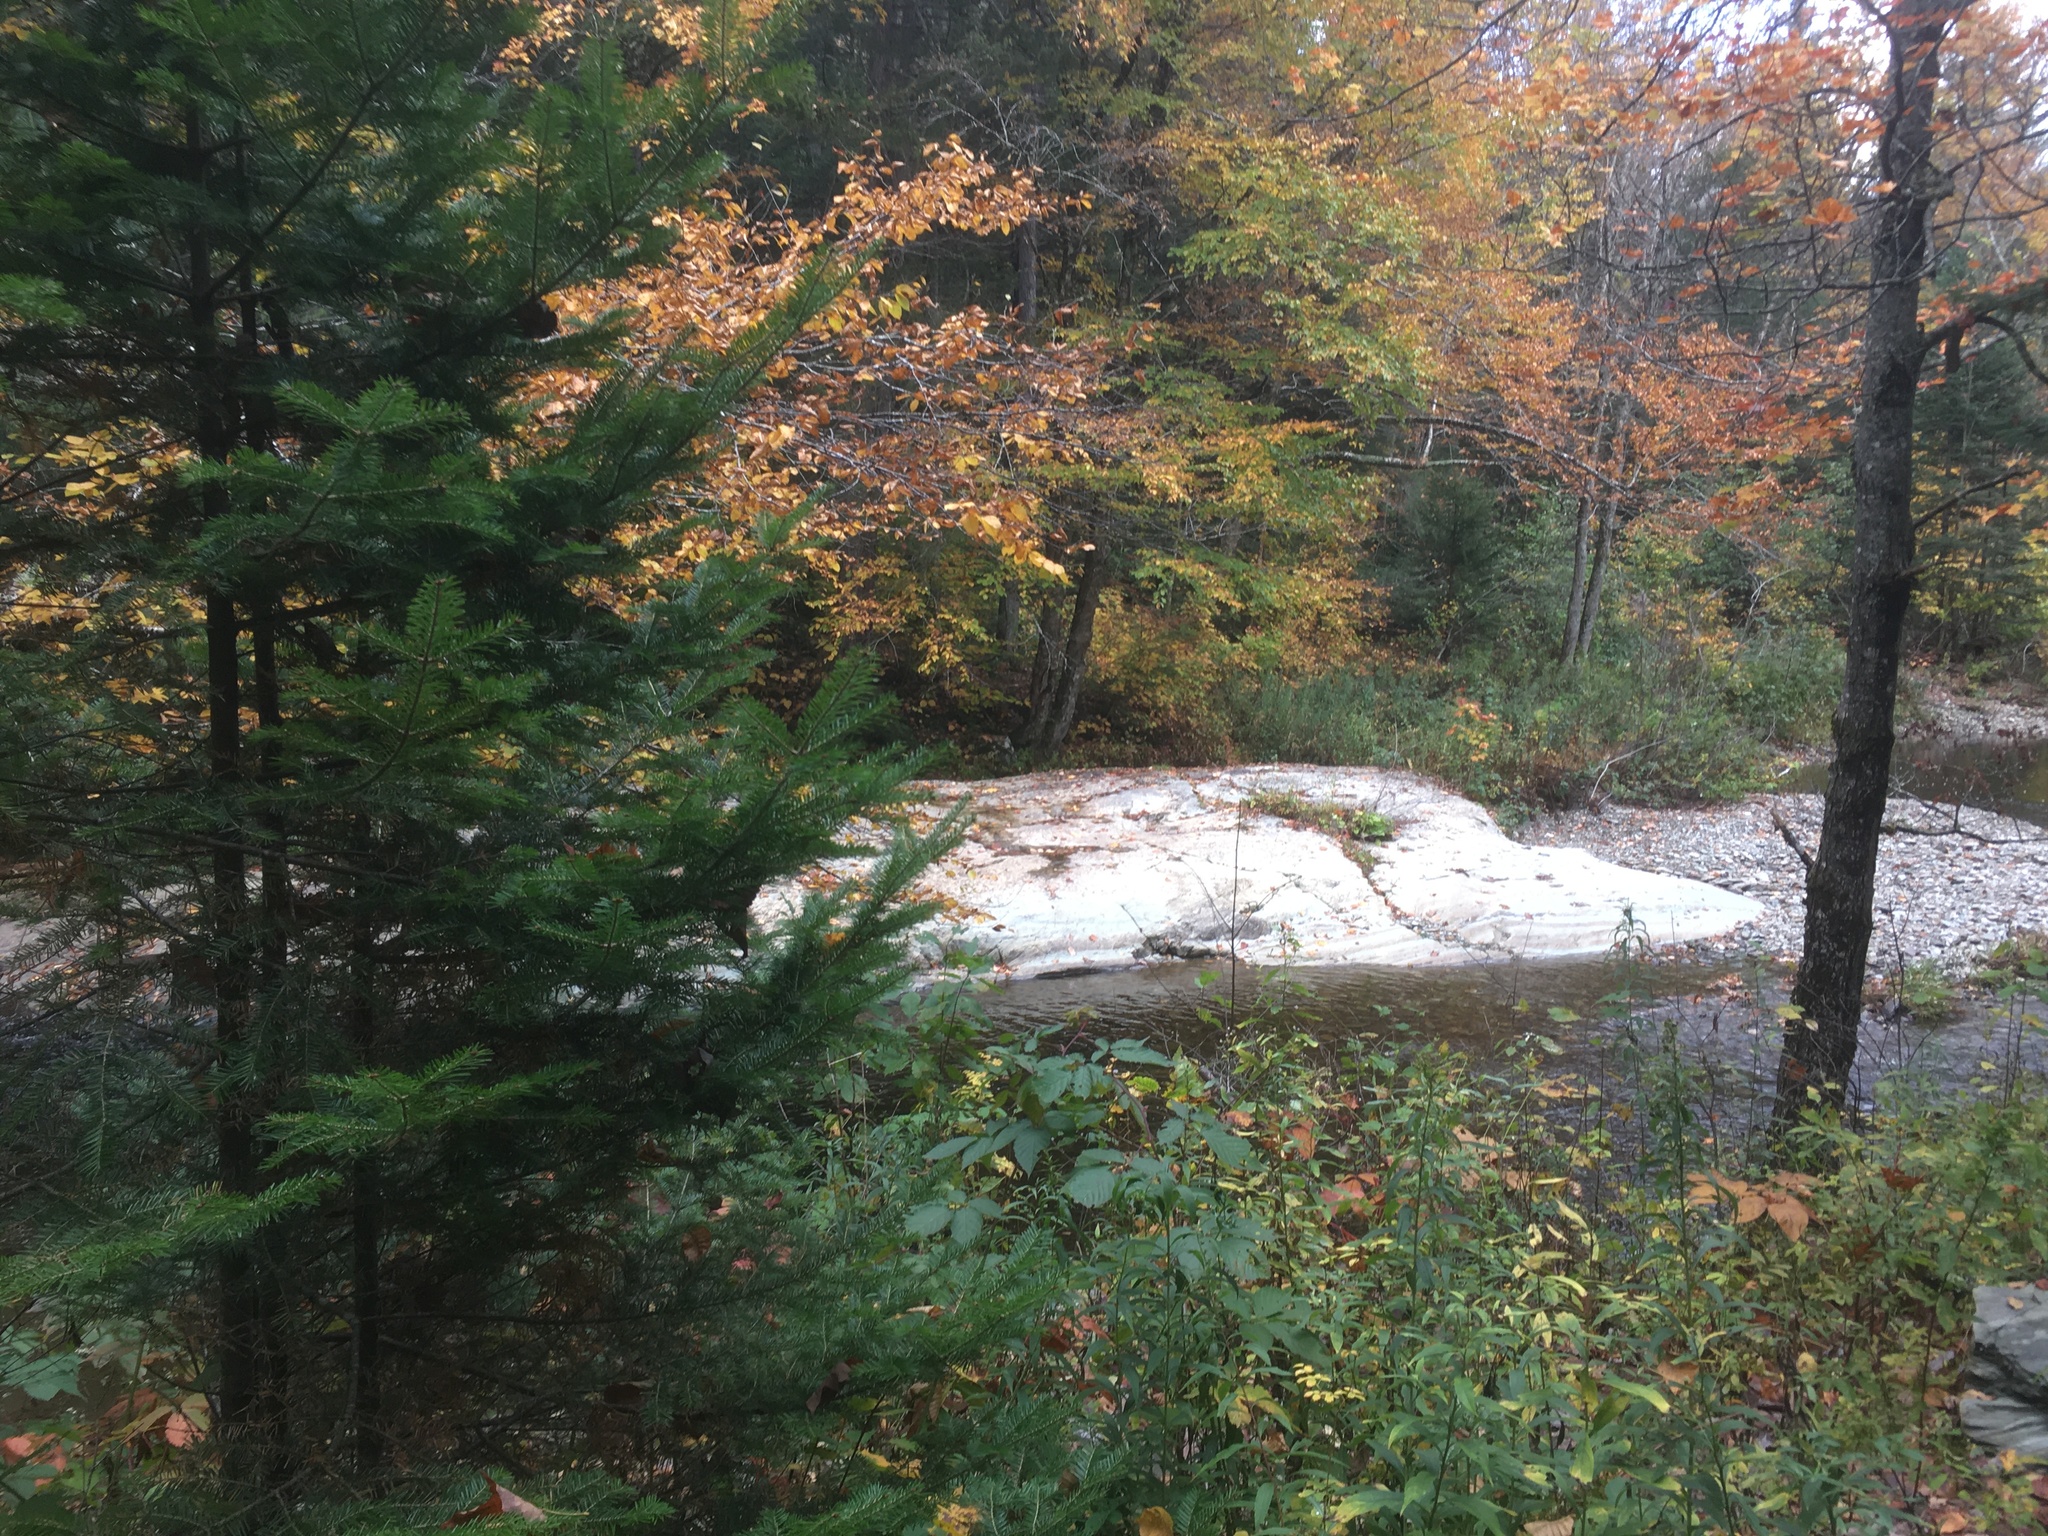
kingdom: Plantae
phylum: Tracheophyta
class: Pinopsida
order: Pinales
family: Pinaceae
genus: Abies
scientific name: Abies balsamea
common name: Balsam fir
